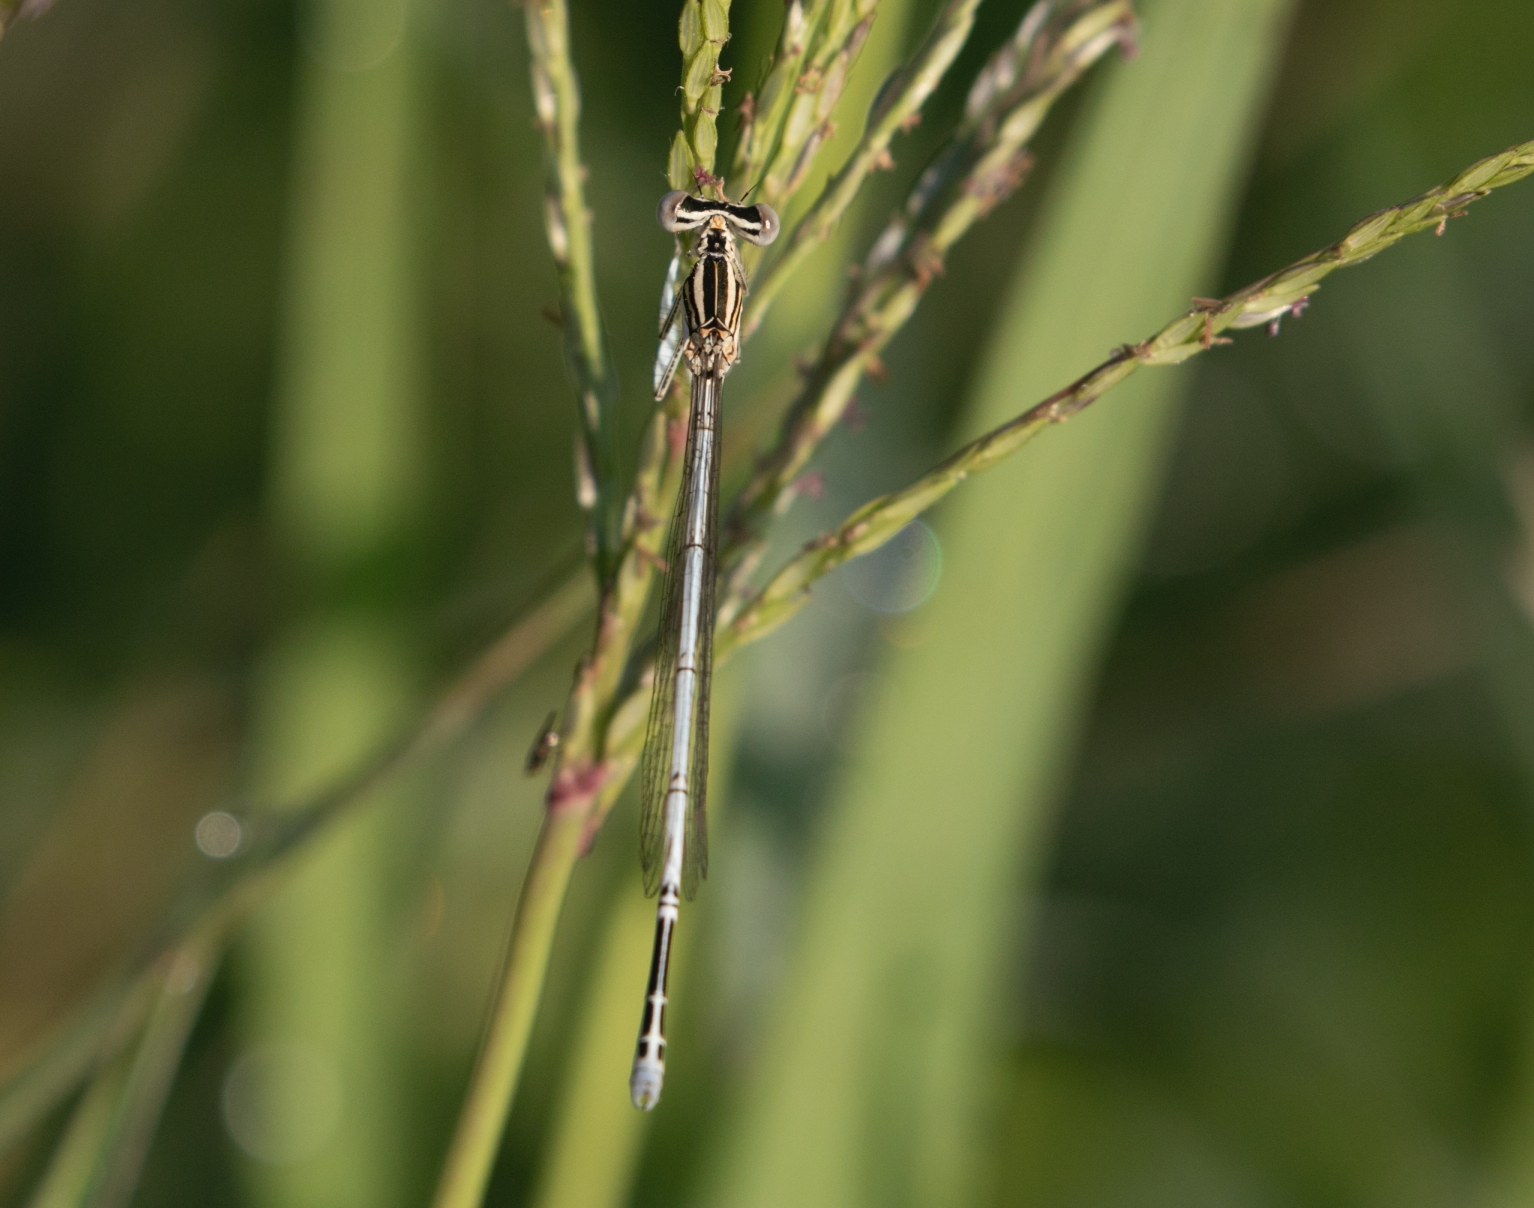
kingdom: Animalia
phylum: Arthropoda
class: Insecta
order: Odonata
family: Platycnemididae
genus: Platycnemis
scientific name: Platycnemis pennipes
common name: White-legged damselfly
